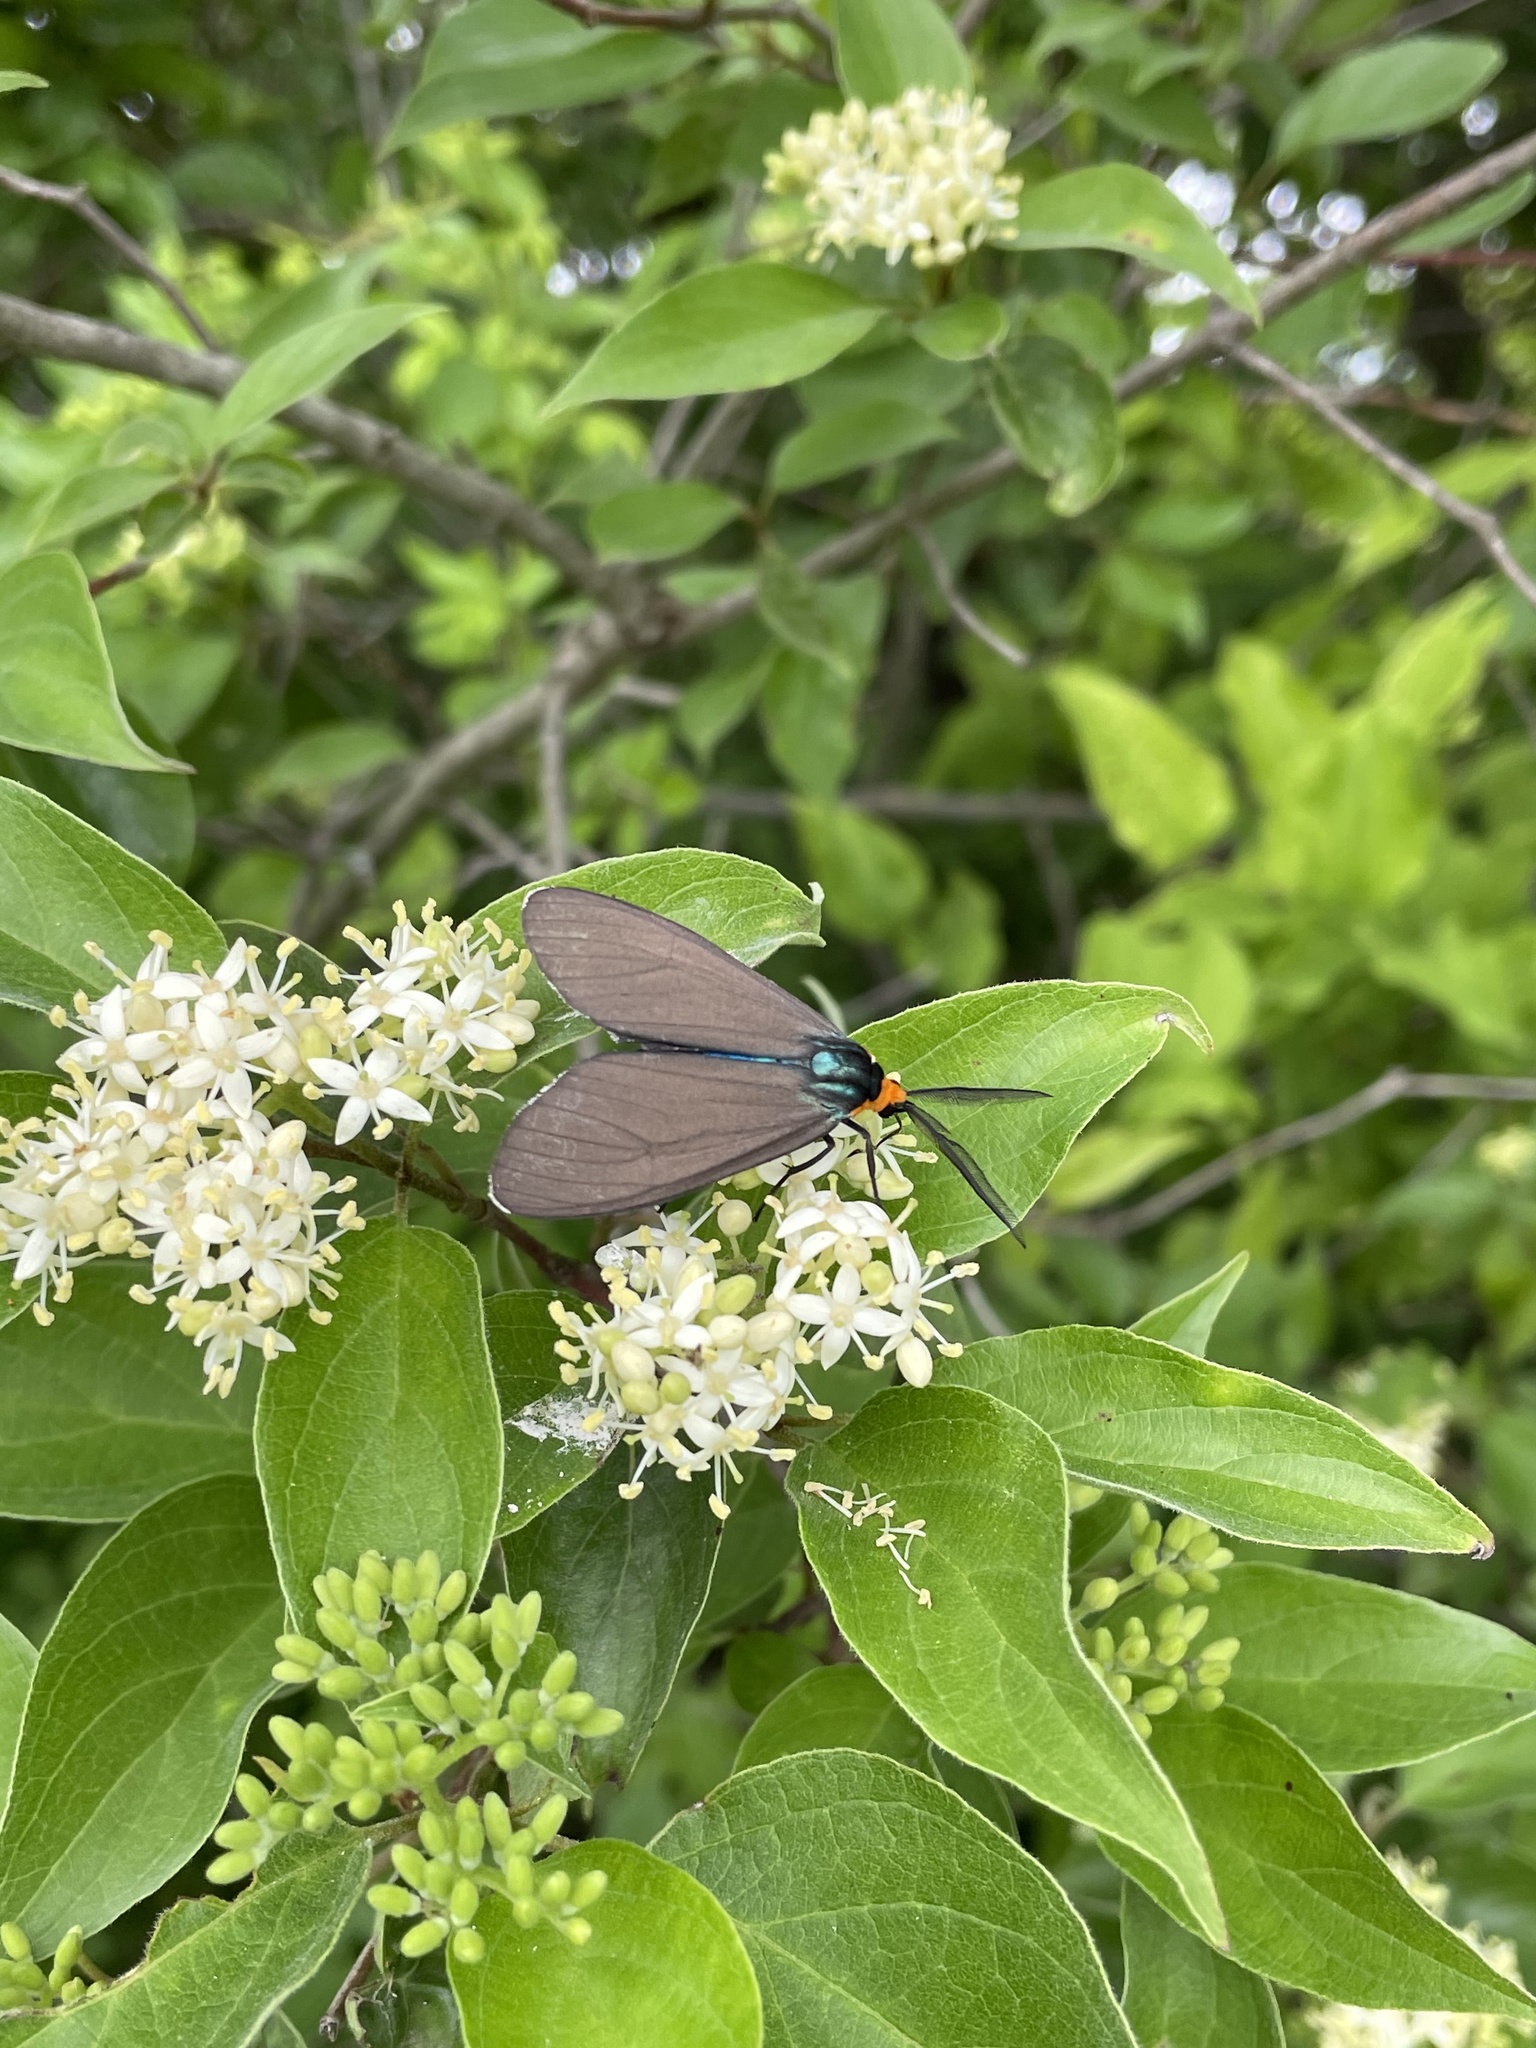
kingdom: Animalia
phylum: Arthropoda
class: Insecta
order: Lepidoptera
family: Erebidae
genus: Ctenucha
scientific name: Ctenucha virginica
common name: Virginia ctenucha moth
